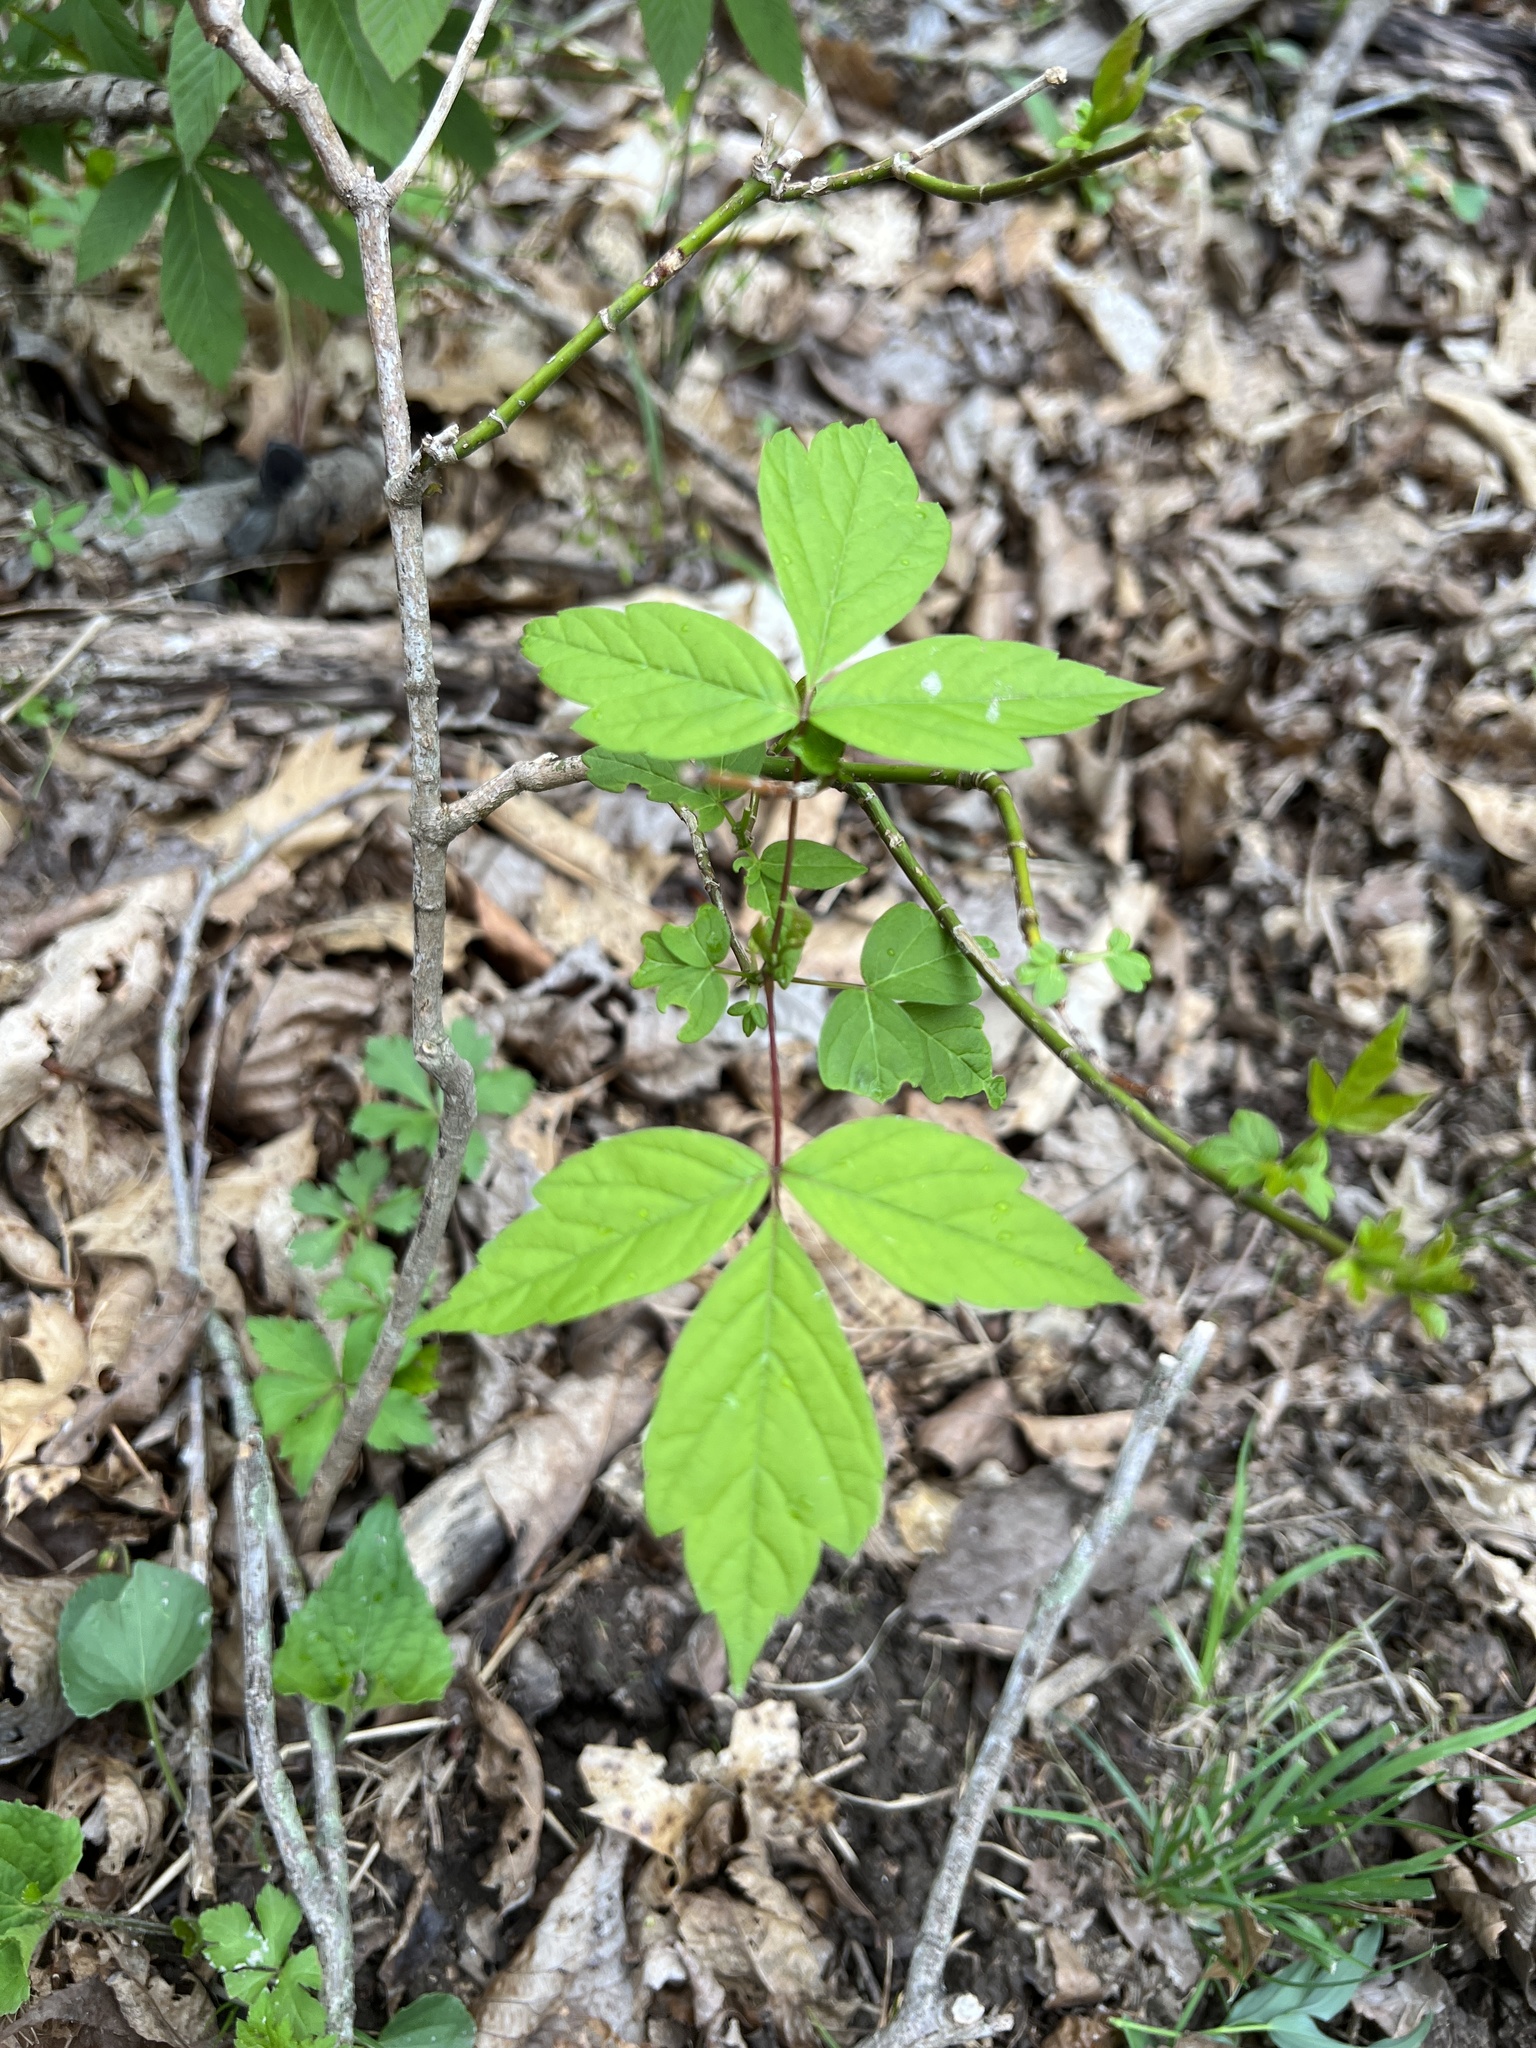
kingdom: Plantae
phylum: Tracheophyta
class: Magnoliopsida
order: Sapindales
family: Sapindaceae
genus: Acer
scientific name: Acer negundo
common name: Ashleaf maple
